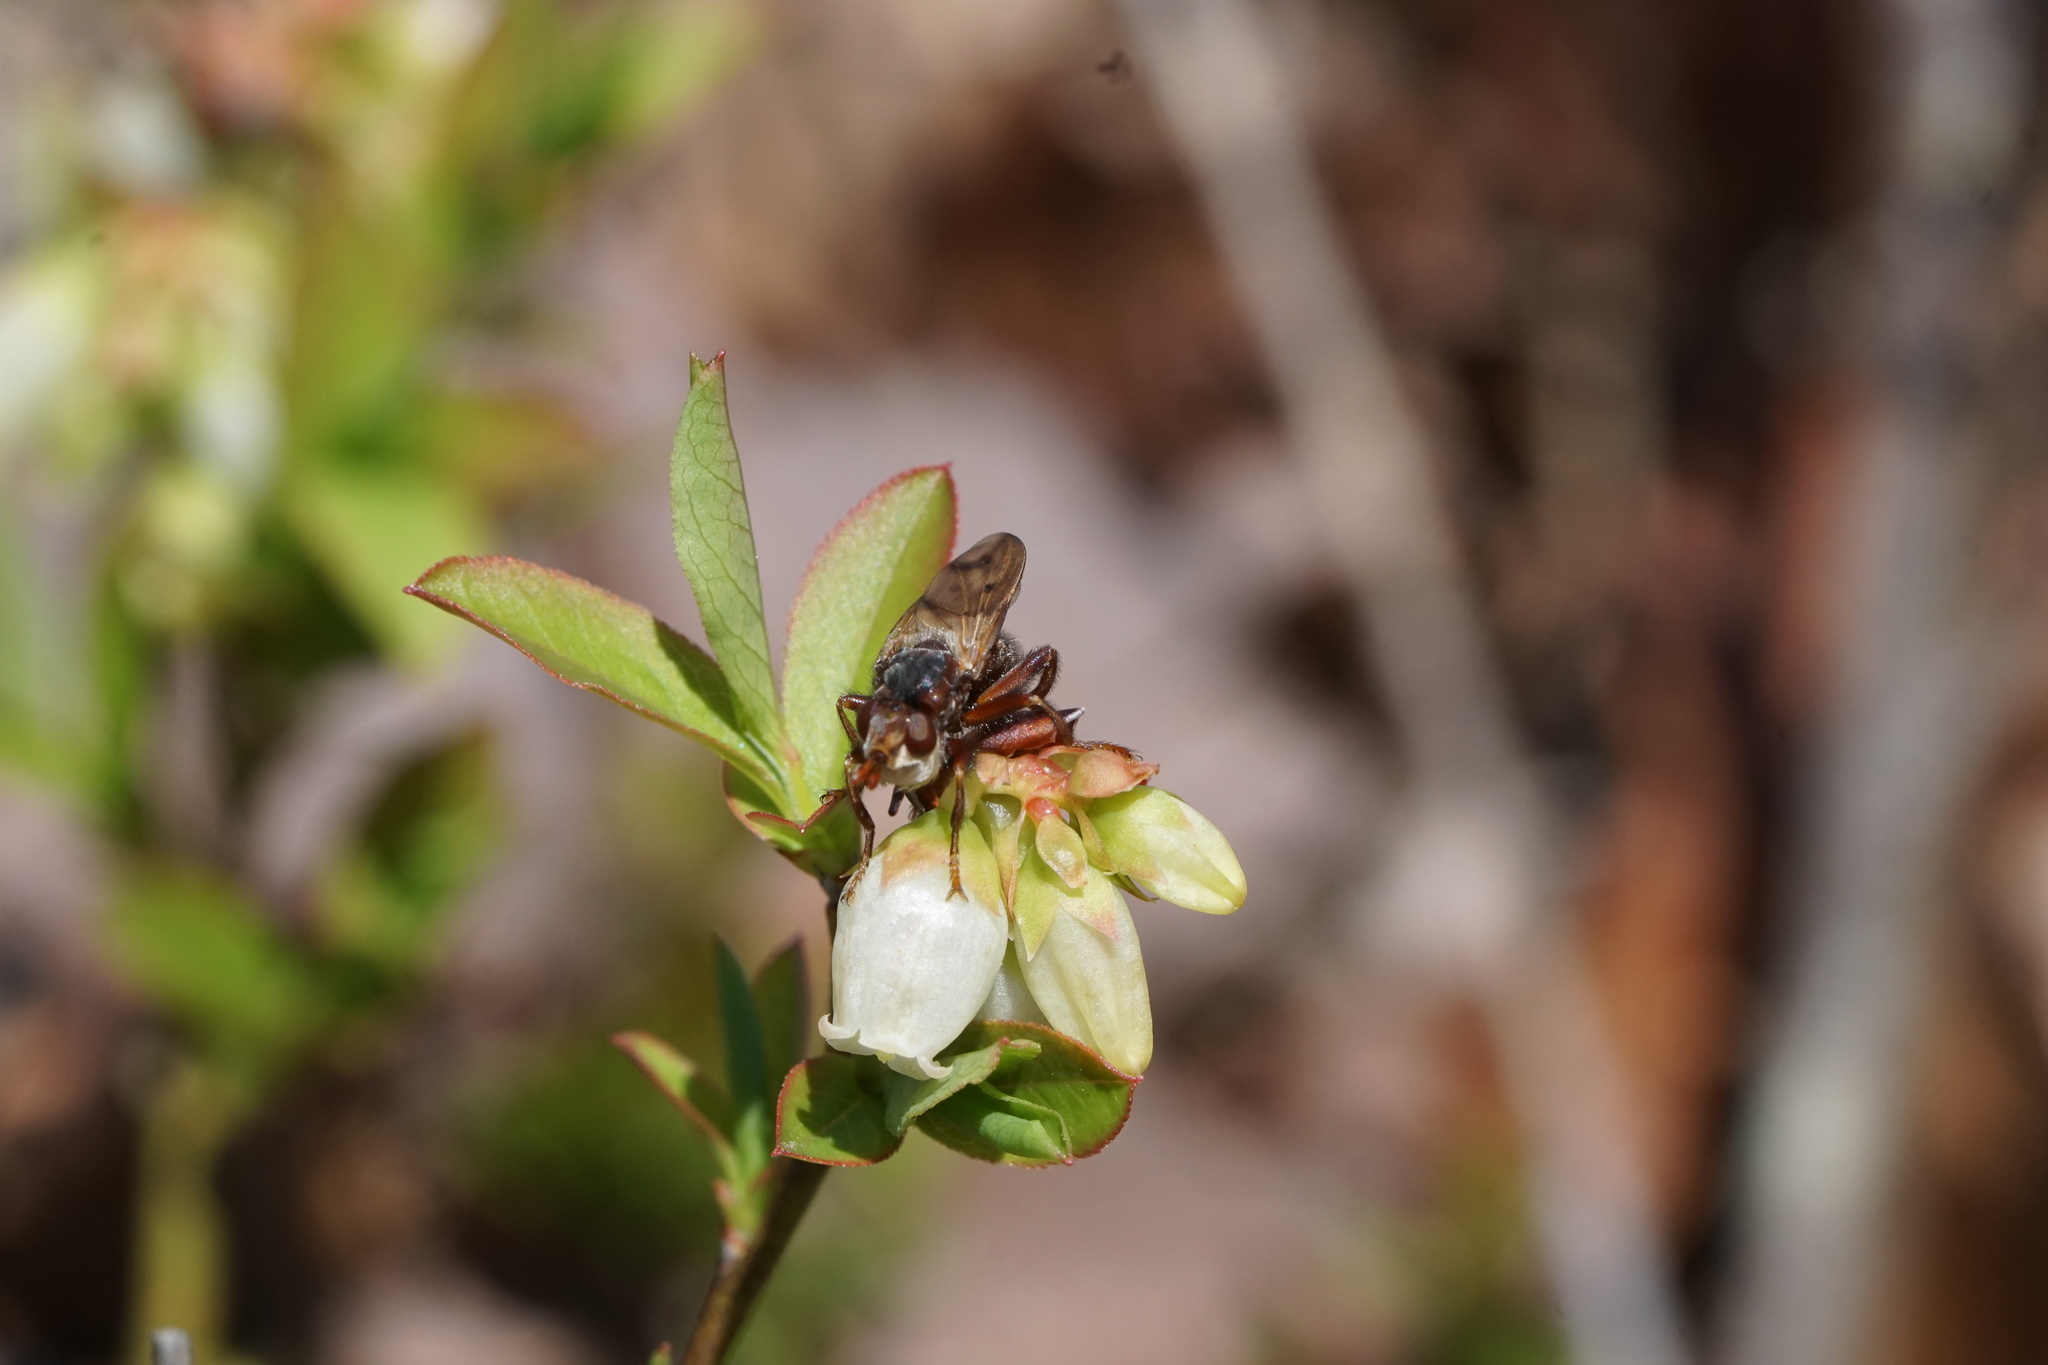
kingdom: Animalia
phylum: Arthropoda
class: Insecta
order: Diptera
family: Conopidae
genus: Myopa
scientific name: Myopa vicaria
